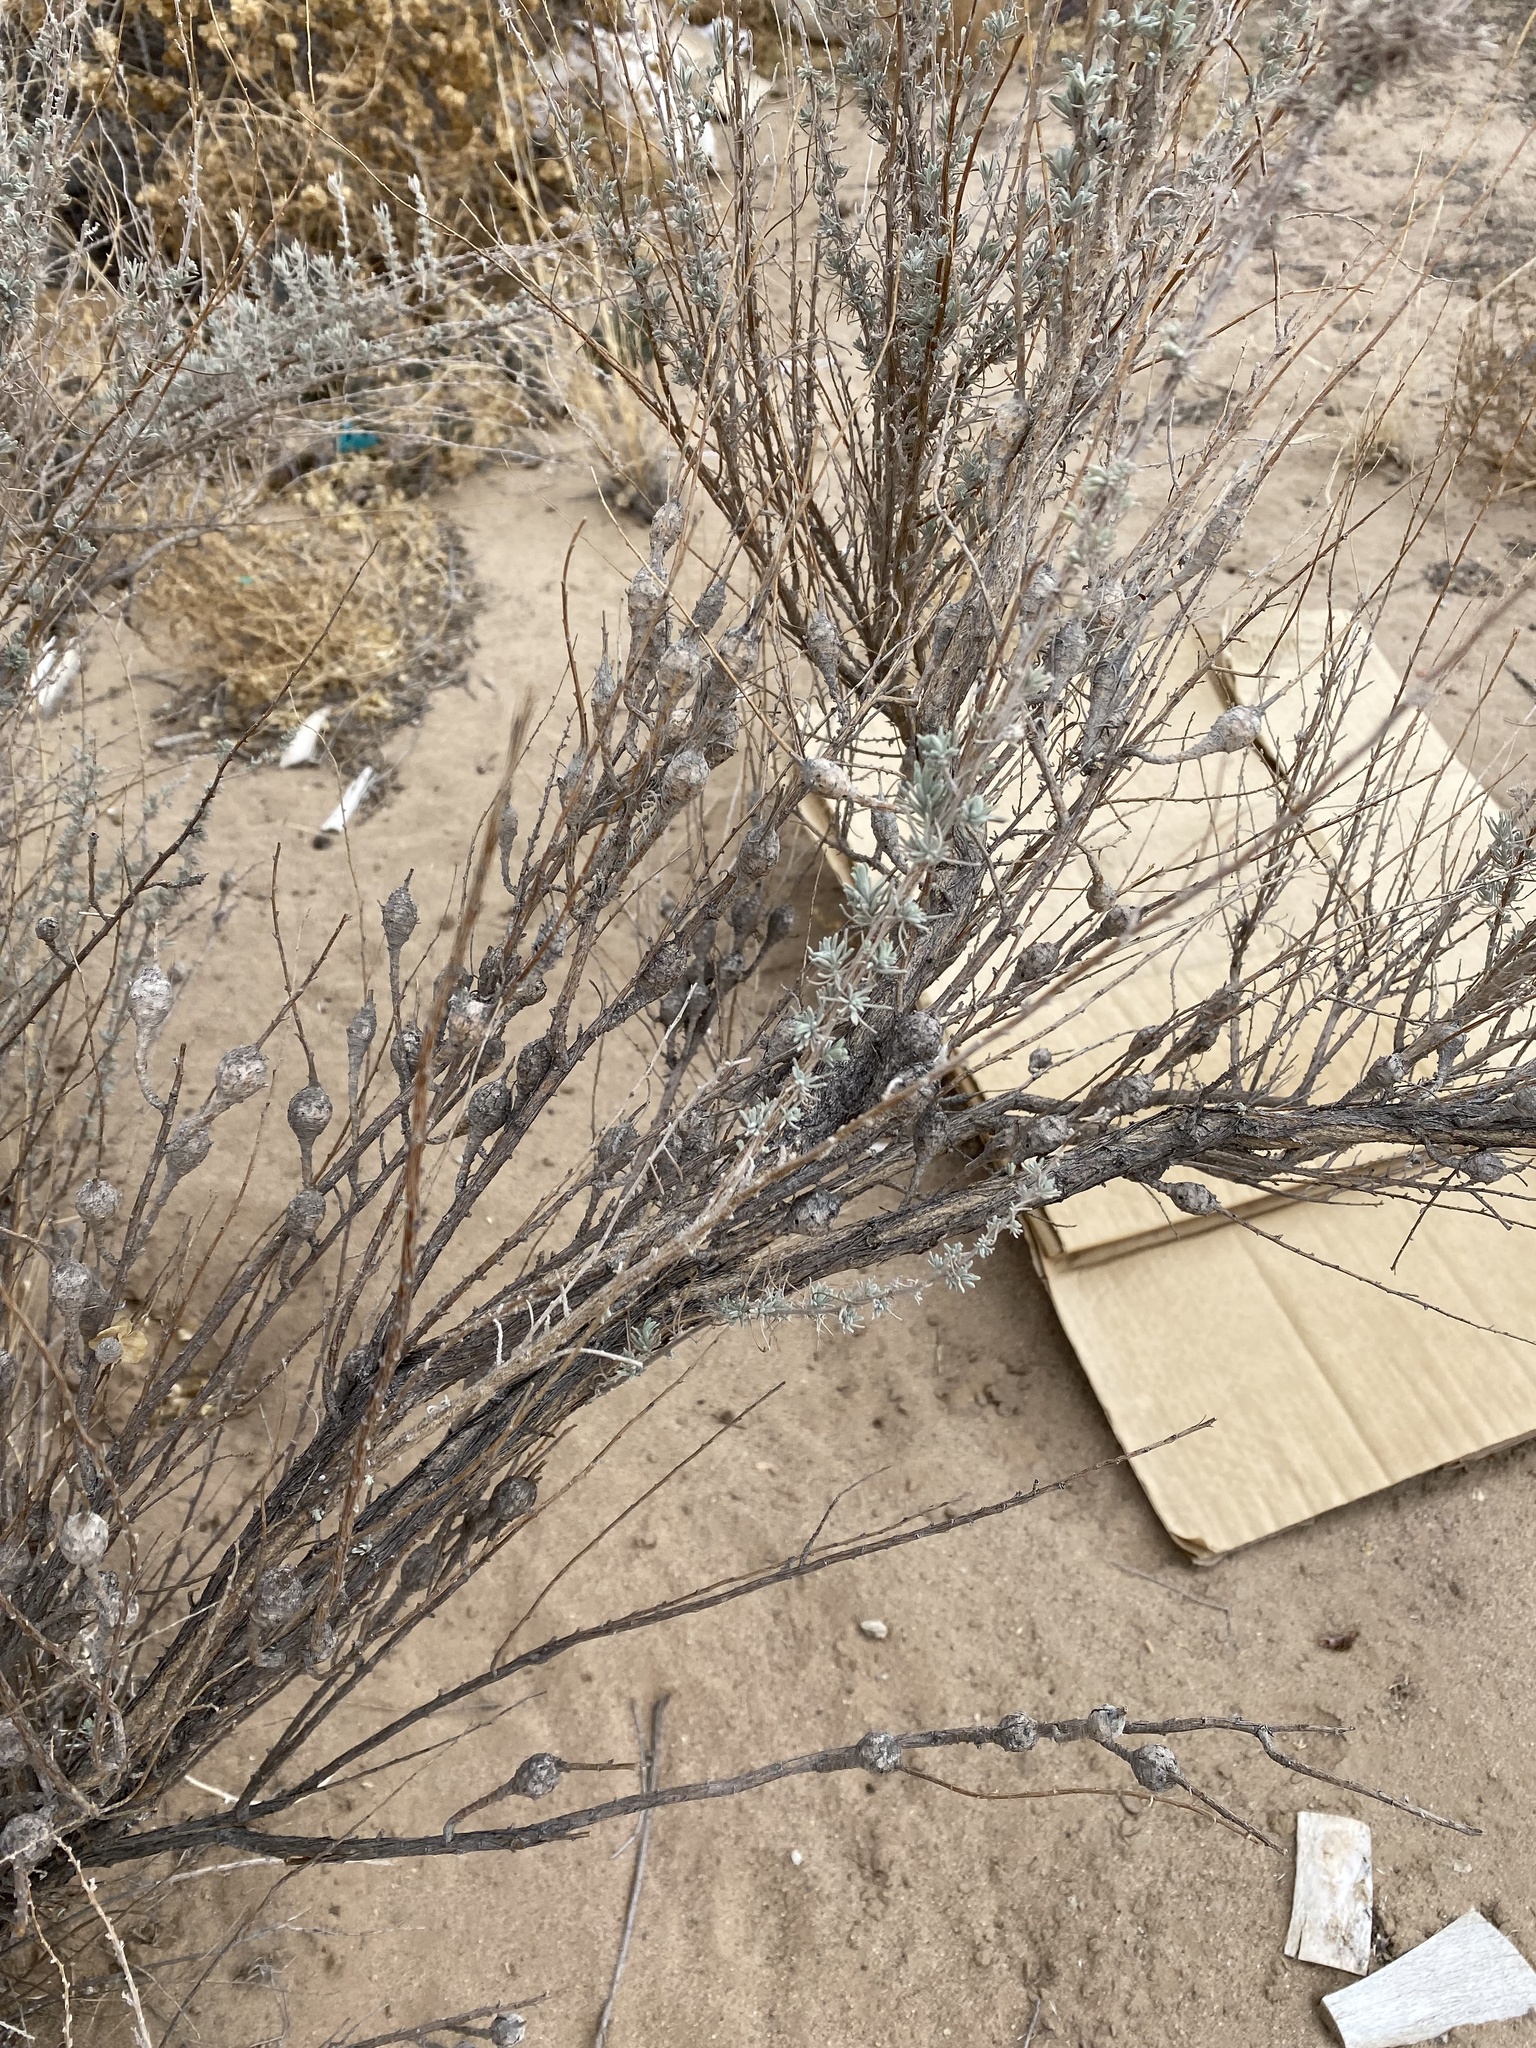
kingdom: Animalia
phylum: Arthropoda
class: Insecta
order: Diptera
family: Tephritidae
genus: Eutreta
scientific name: Eutreta diana
